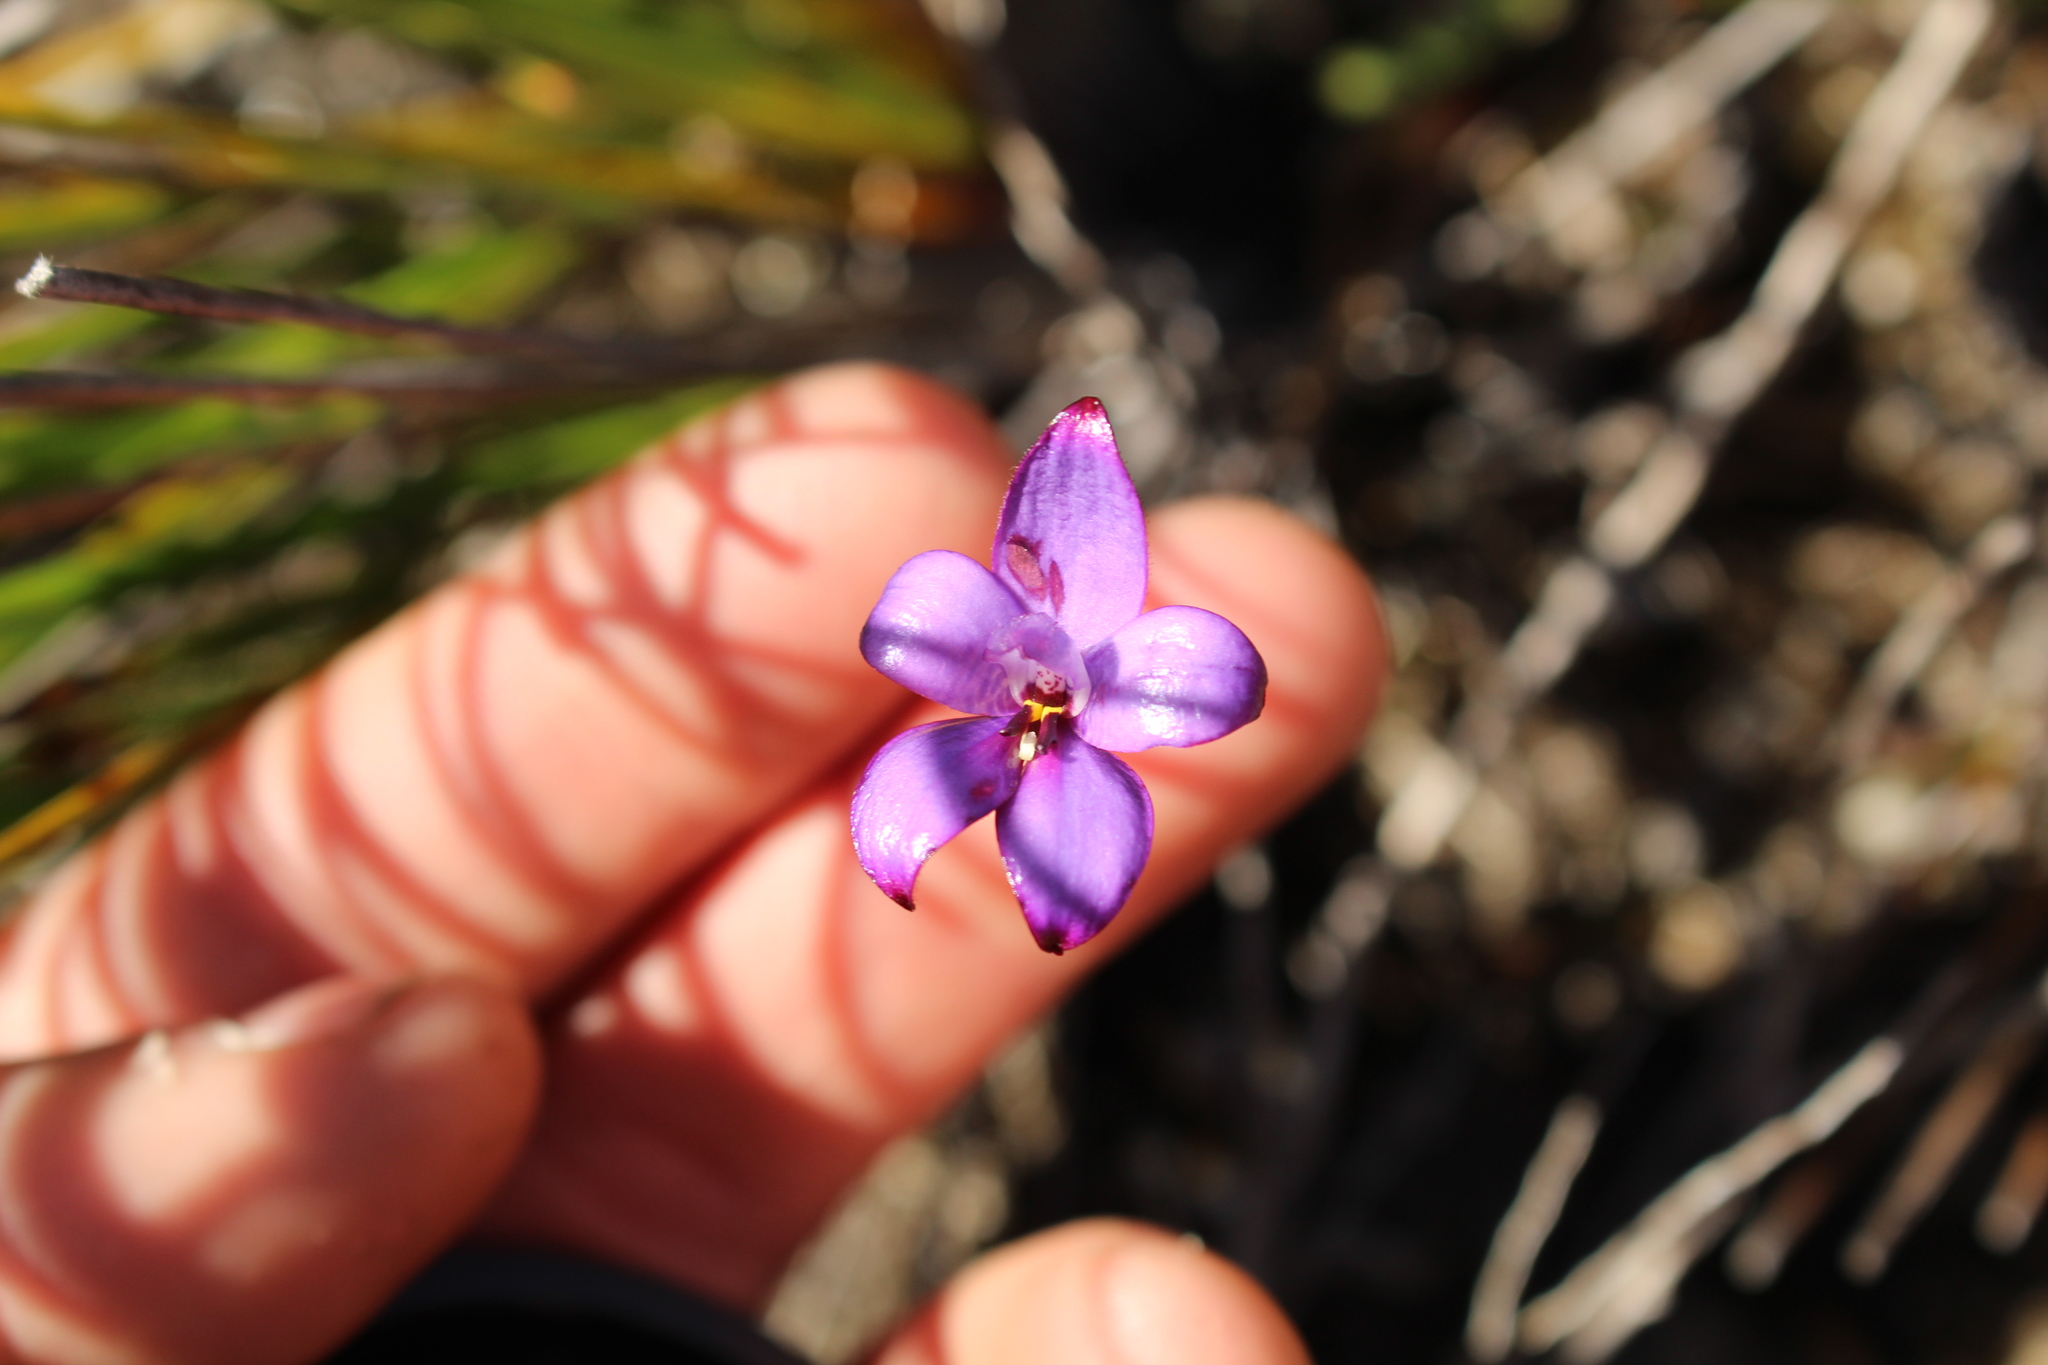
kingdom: Plantae
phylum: Tracheophyta
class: Liliopsida
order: Asparagales
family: Orchidaceae
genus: Caladenia
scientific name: Caladenia brunonis
